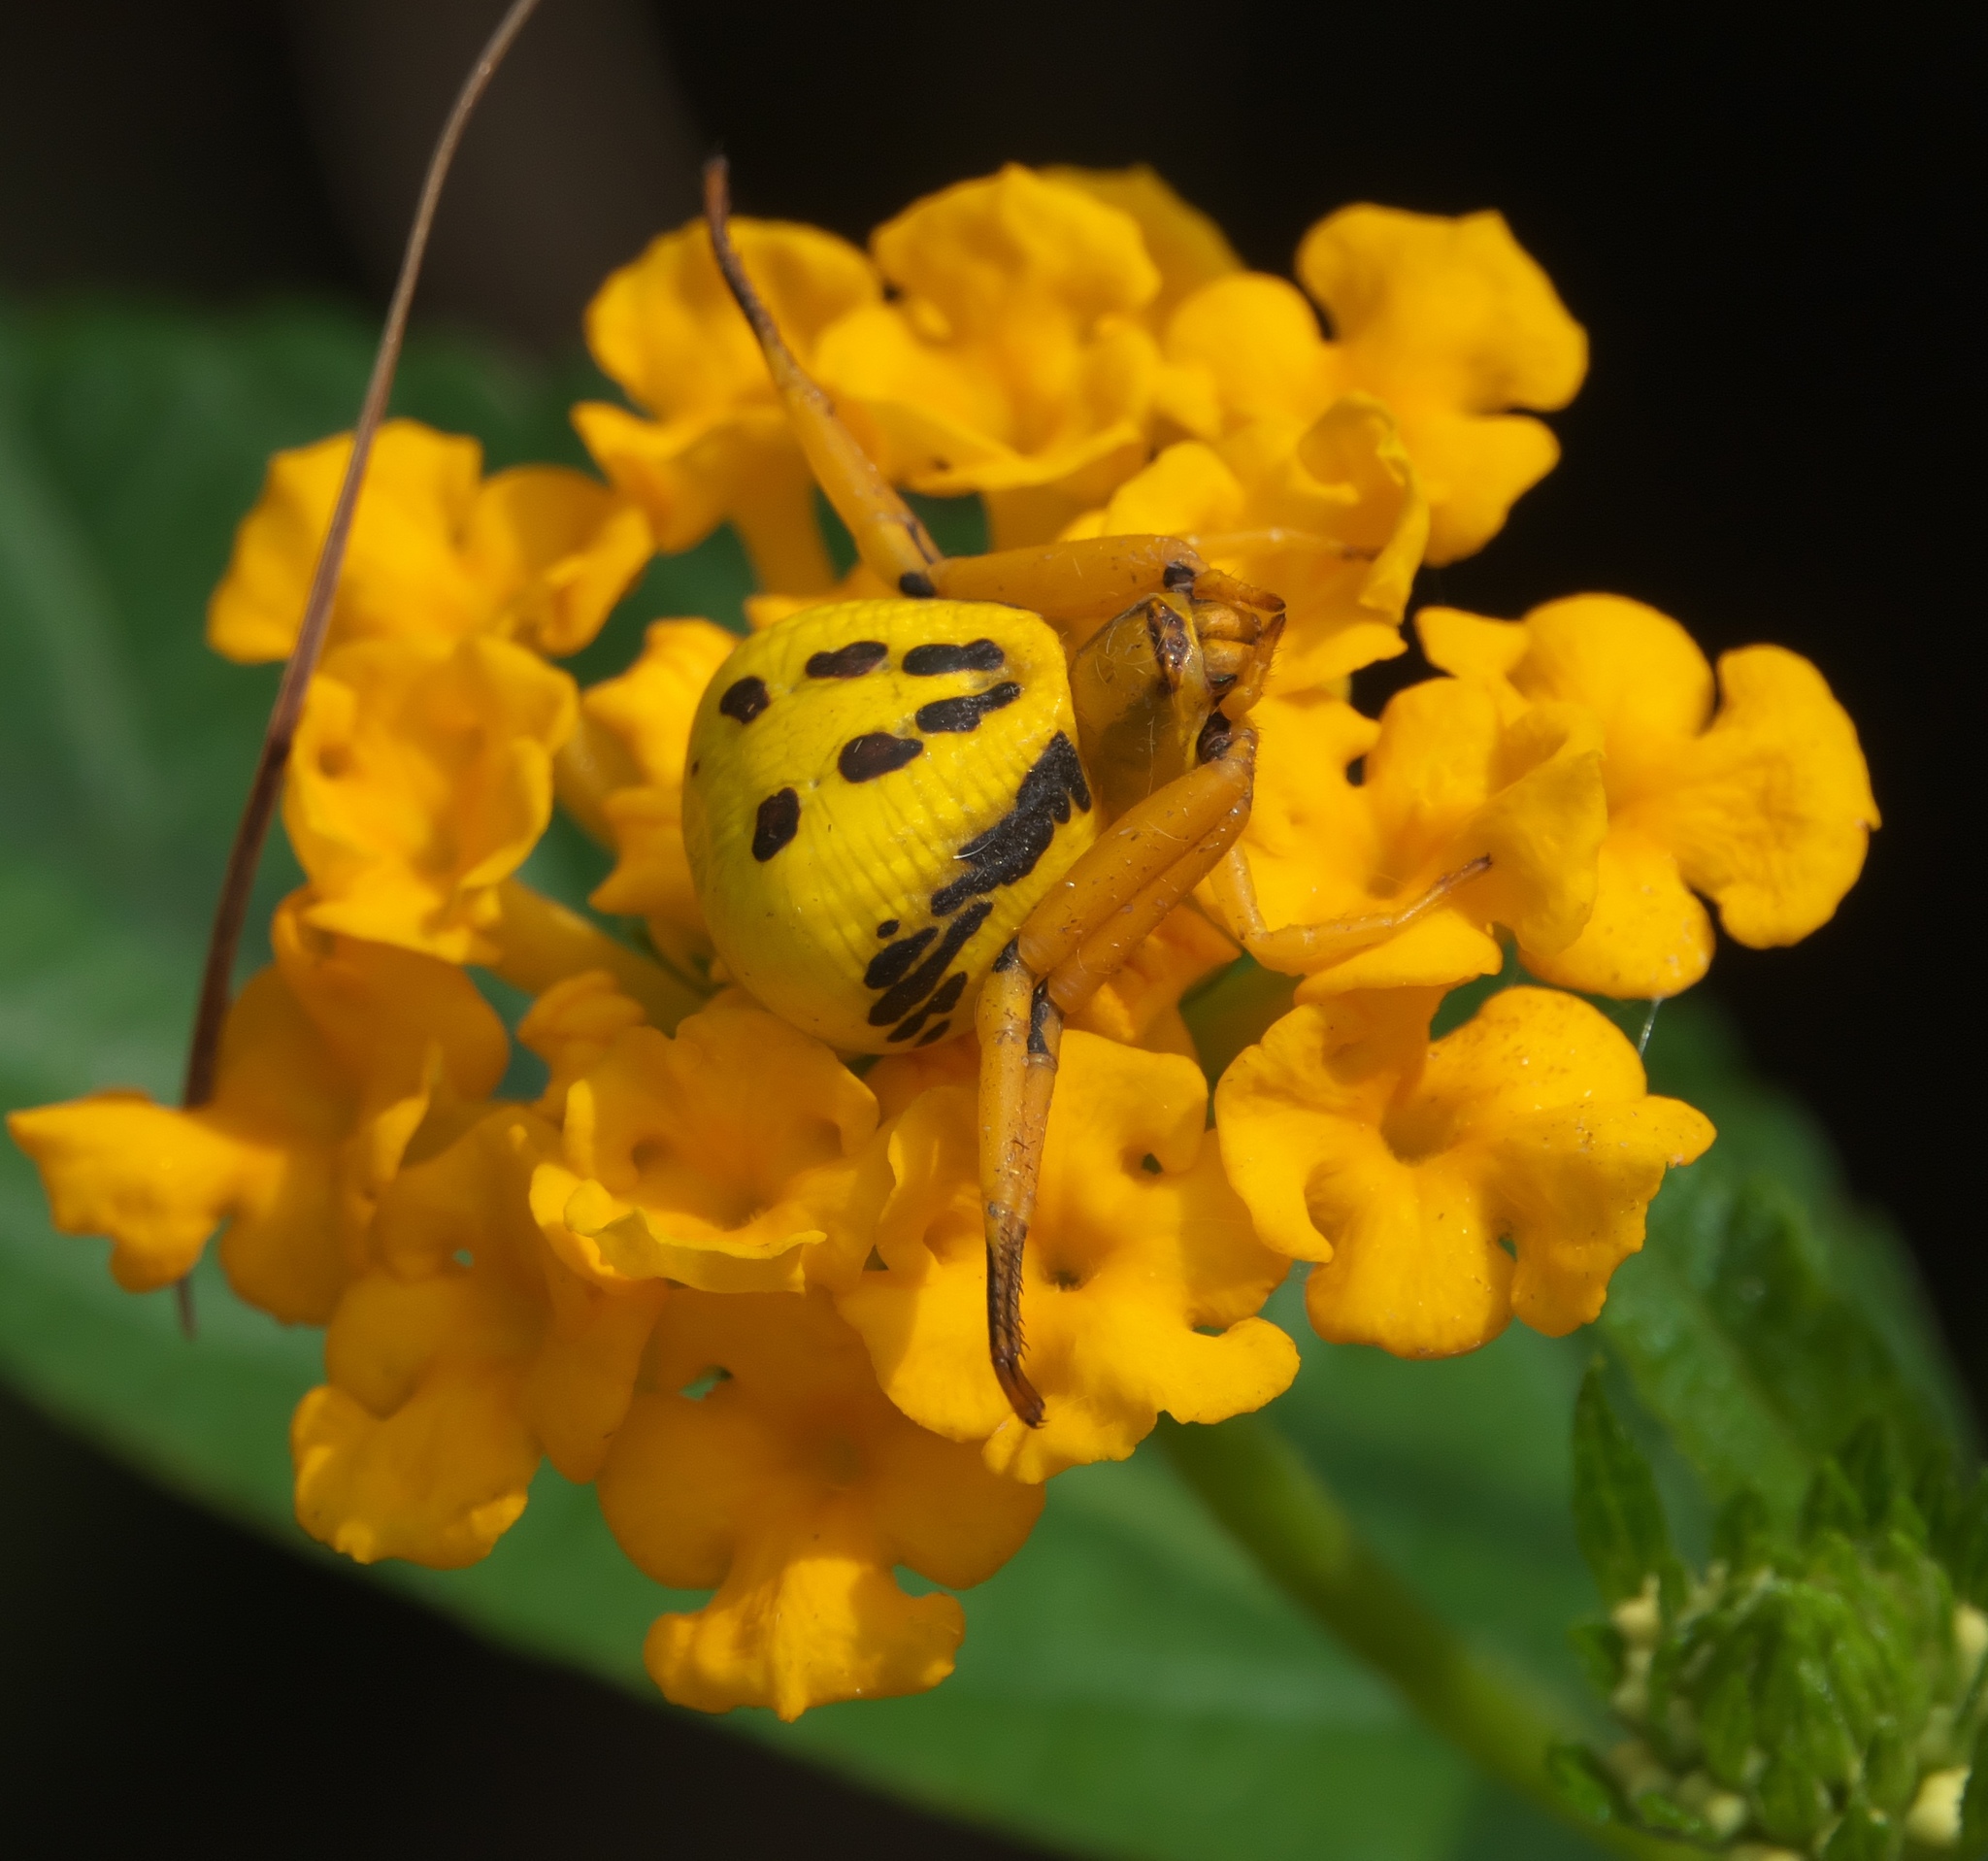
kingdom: Animalia
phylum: Arthropoda
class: Arachnida
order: Araneae
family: Thomisidae
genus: Misumenoides
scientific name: Misumenoides formosipes
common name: White-banded crab spider
